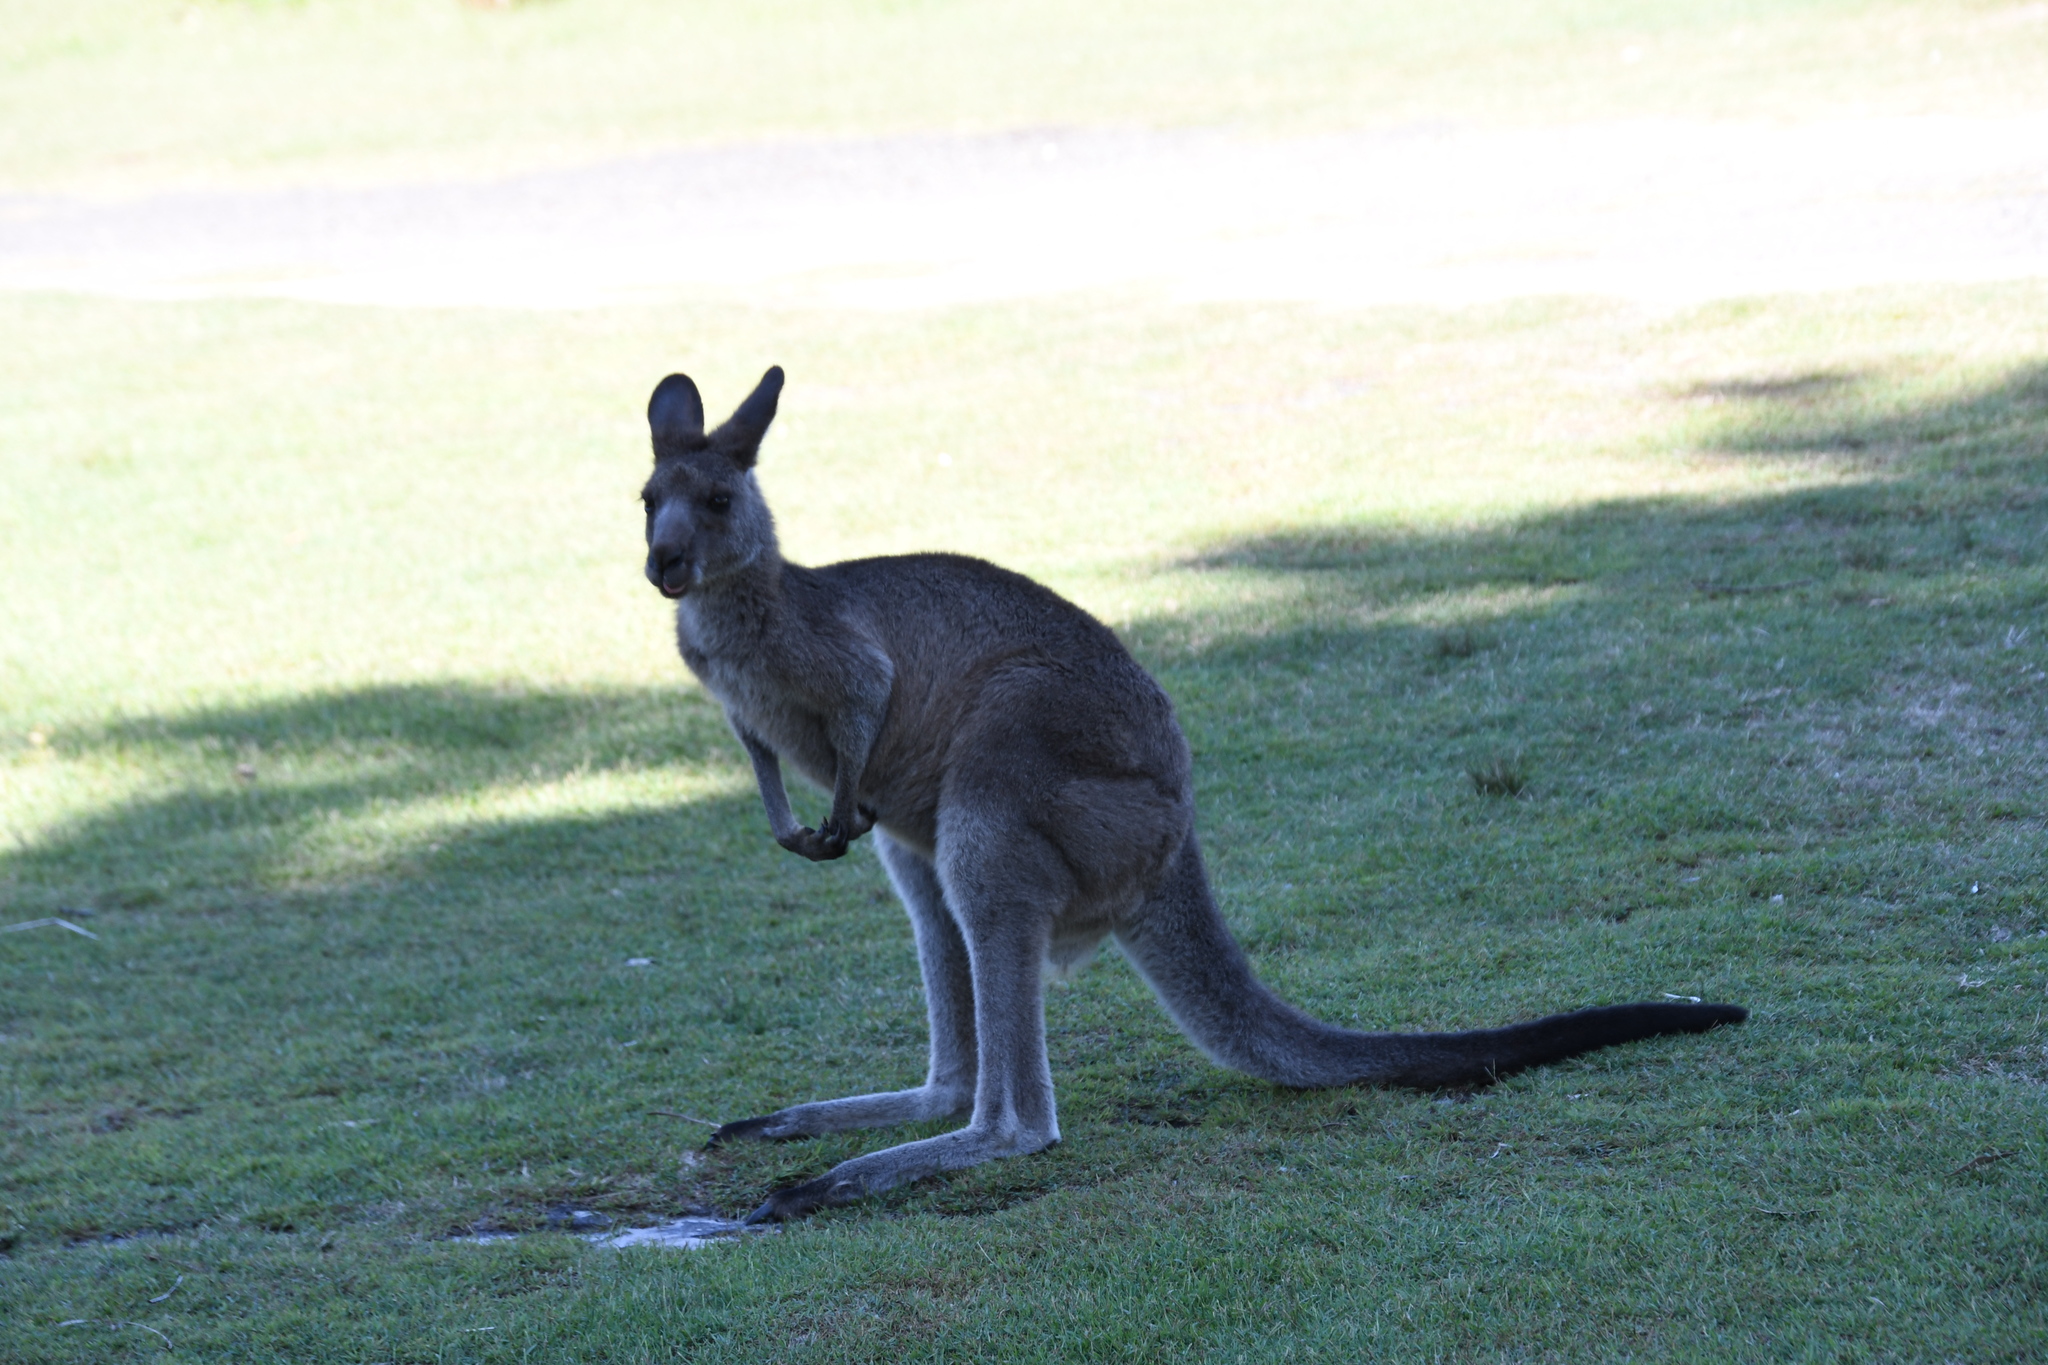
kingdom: Animalia
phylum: Chordata
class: Mammalia
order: Diprotodontia
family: Macropodidae
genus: Macropus
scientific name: Macropus giganteus
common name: Eastern grey kangaroo
